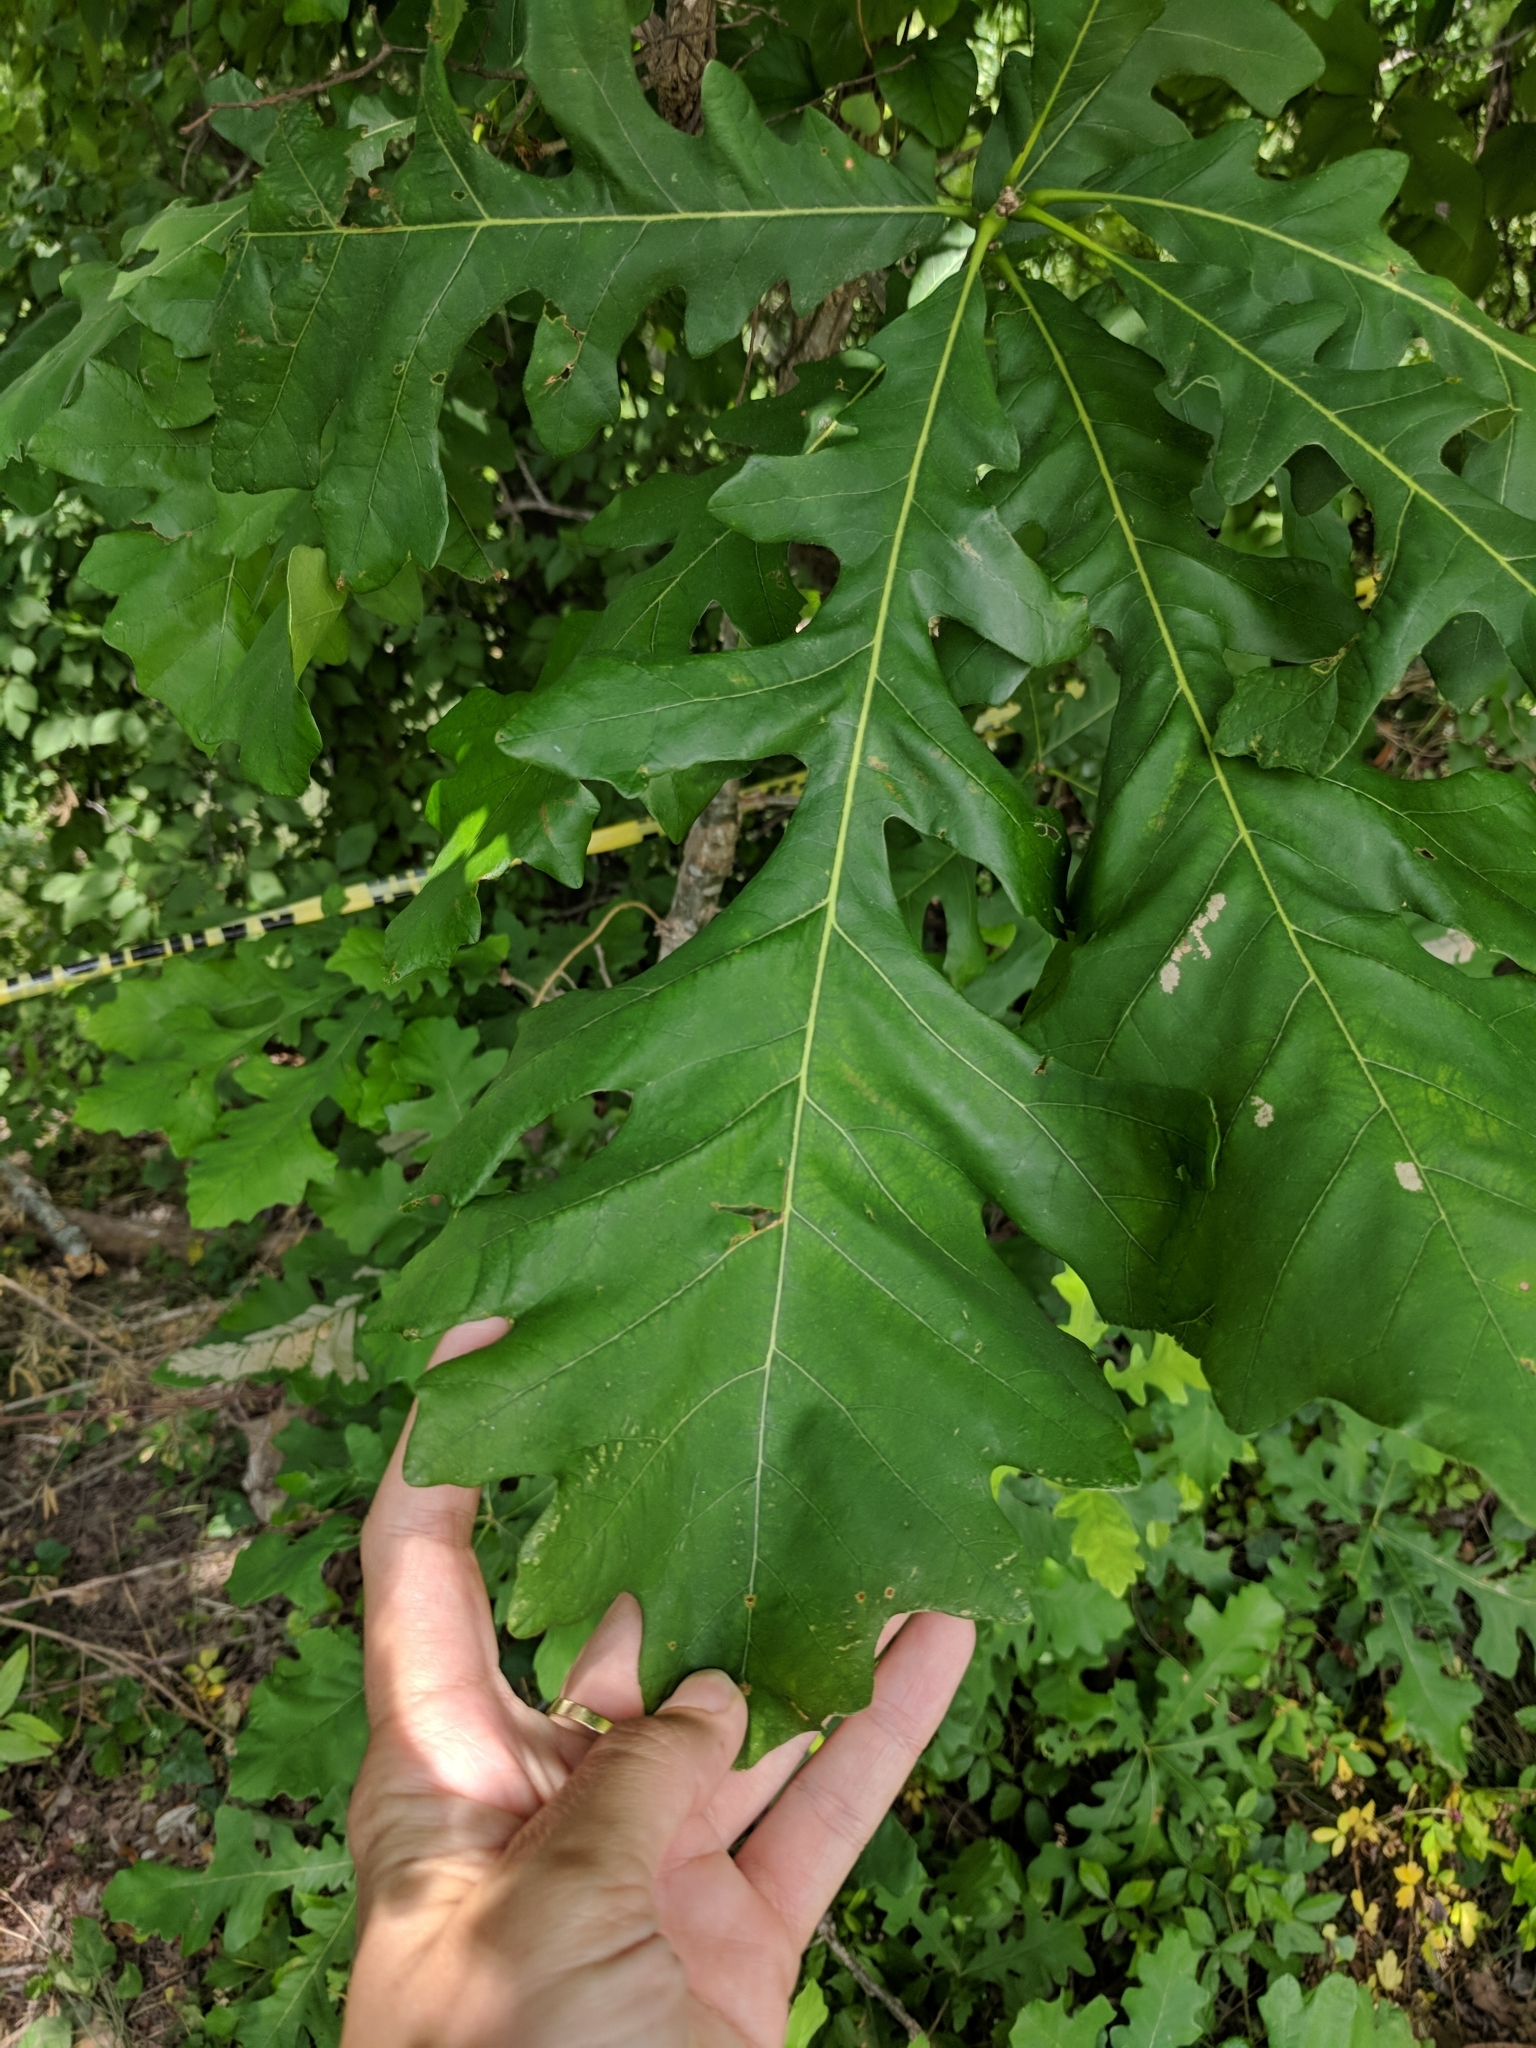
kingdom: Plantae
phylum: Tracheophyta
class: Magnoliopsida
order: Fagales
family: Fagaceae
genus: Quercus
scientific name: Quercus macrocarpa
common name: Bur oak
